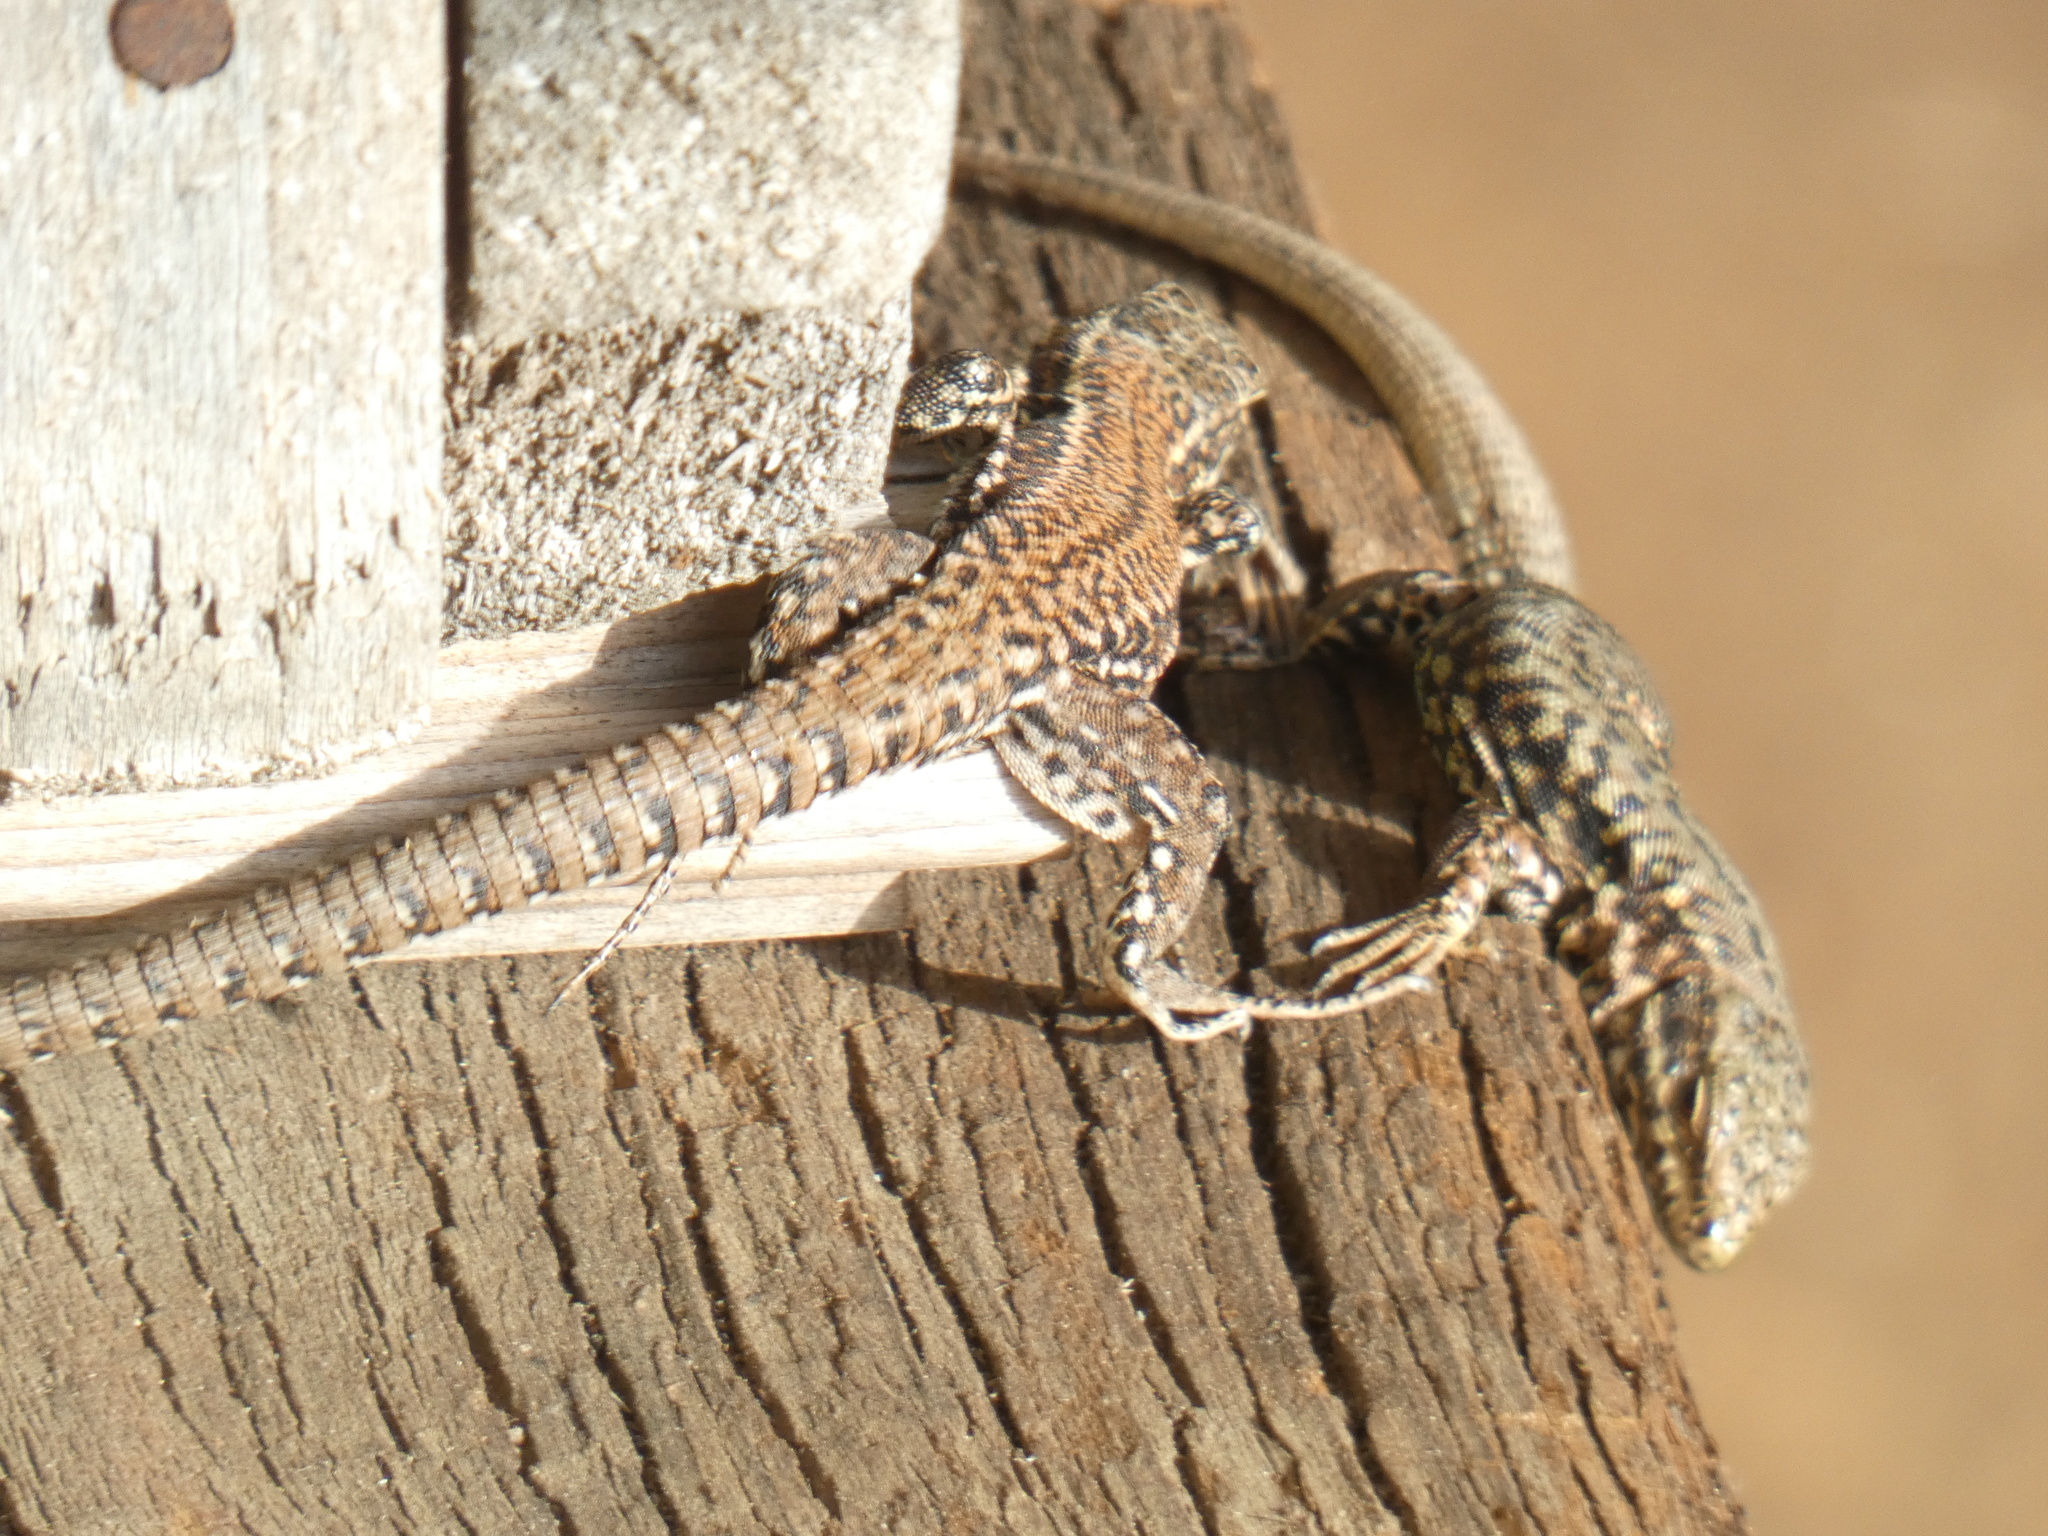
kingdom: Animalia
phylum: Chordata
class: Squamata
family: Lacertidae
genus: Podarcis
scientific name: Podarcis muralis
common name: Common wall lizard
